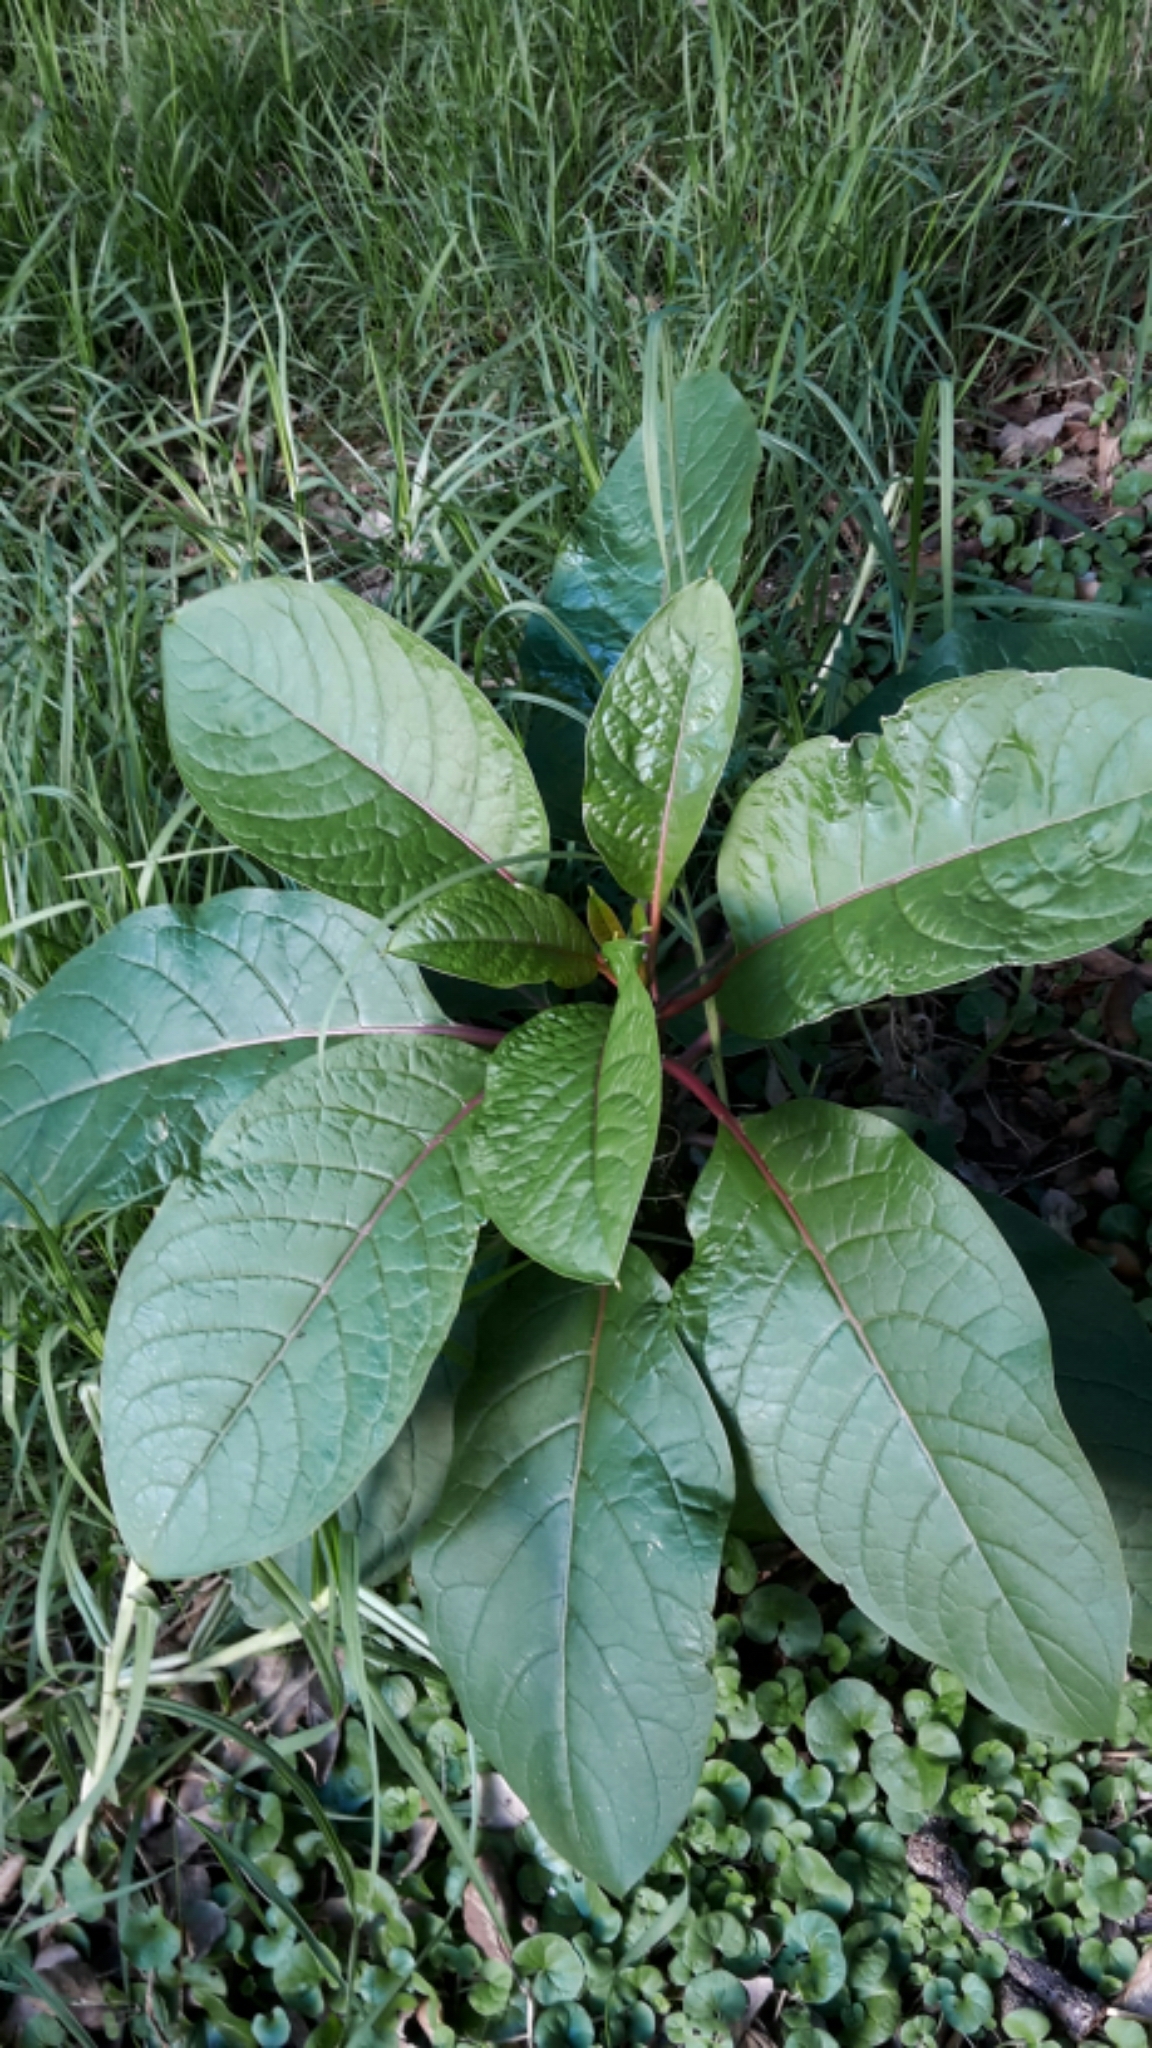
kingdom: Plantae
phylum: Tracheophyta
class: Magnoliopsida
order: Caryophyllales
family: Phytolaccaceae
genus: Phytolacca
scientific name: Phytolacca dioica
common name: Pokeweed
